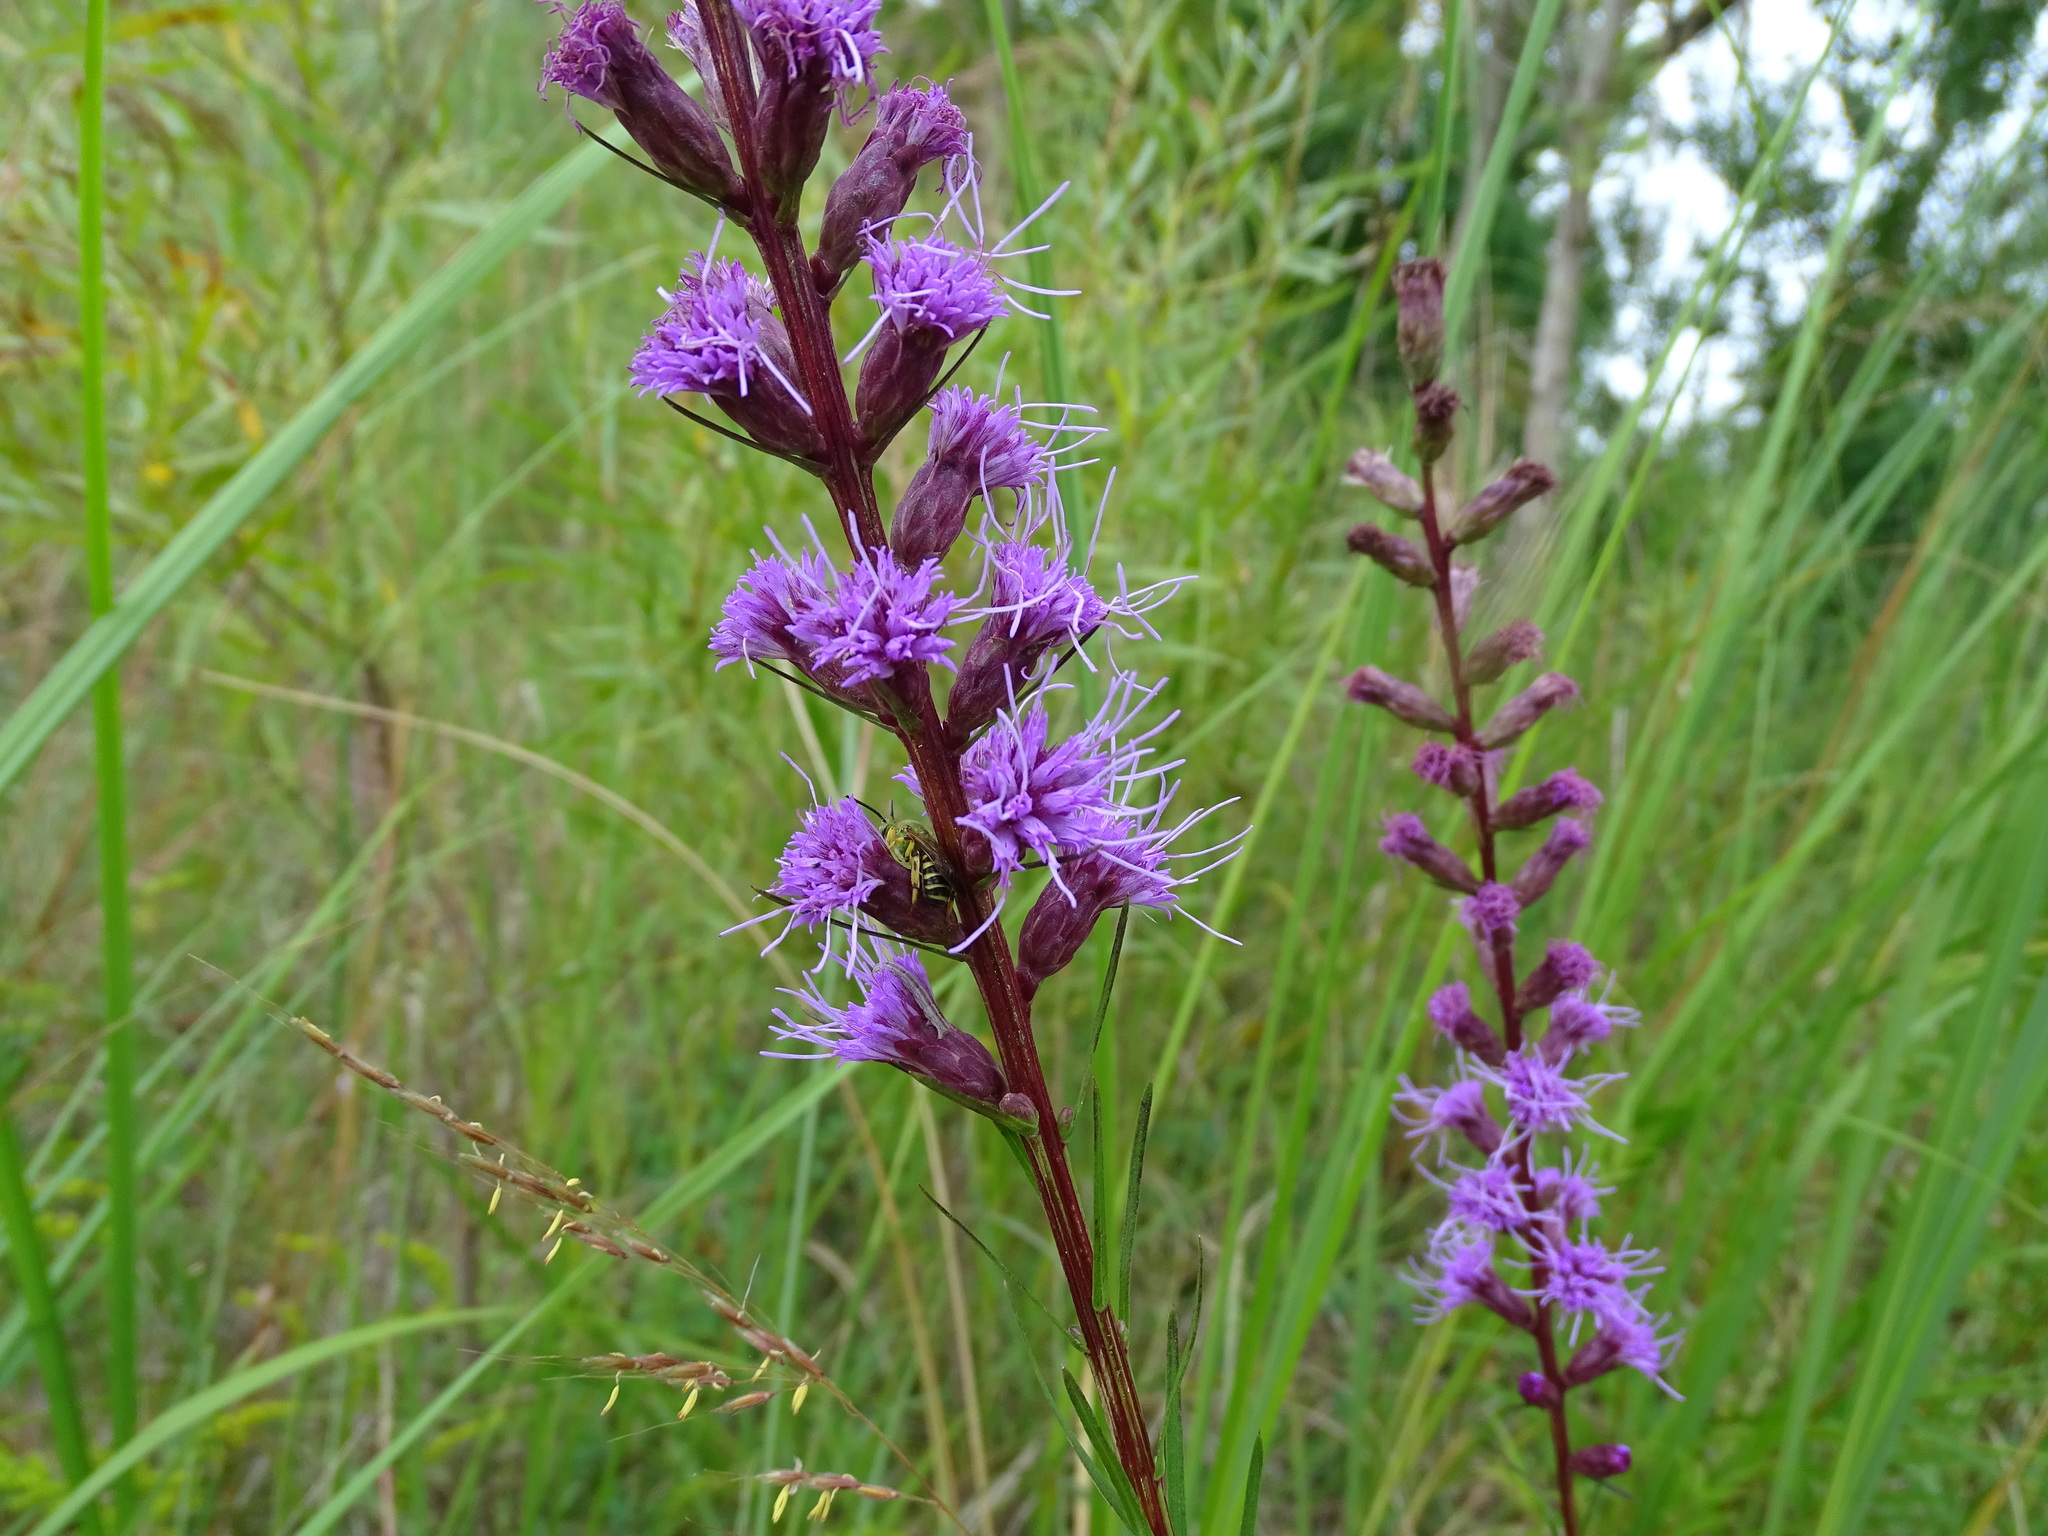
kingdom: Plantae
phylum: Tracheophyta
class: Magnoliopsida
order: Asterales
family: Asteraceae
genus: Liatris
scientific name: Liatris spicata
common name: Florist gayfeather
